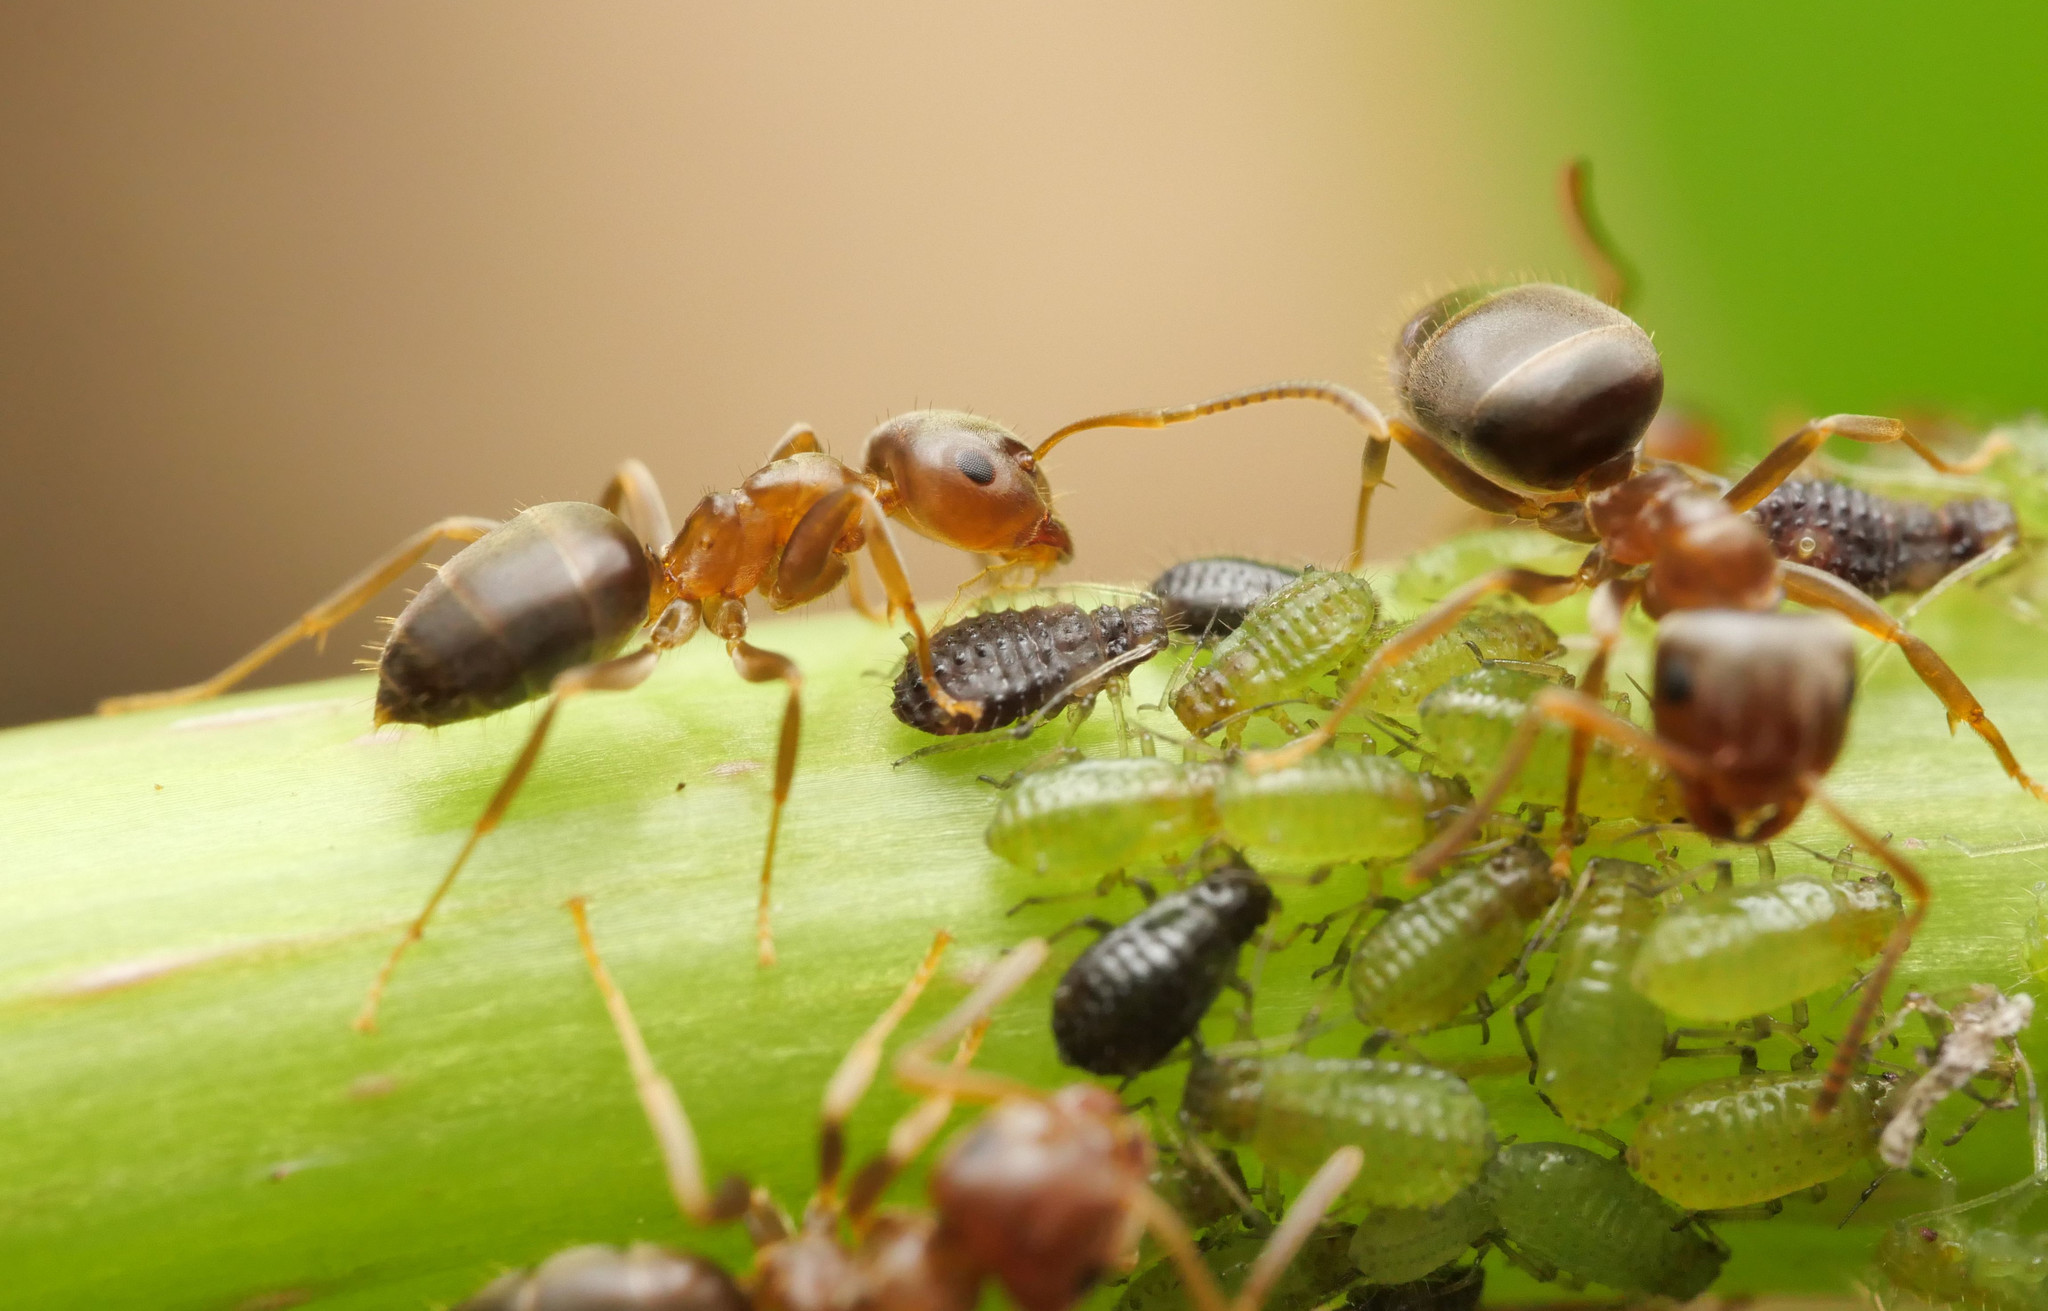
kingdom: Animalia
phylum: Arthropoda
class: Insecta
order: Hymenoptera
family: Formicidae
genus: Lasius
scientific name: Lasius brunneus
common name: Brown ant
